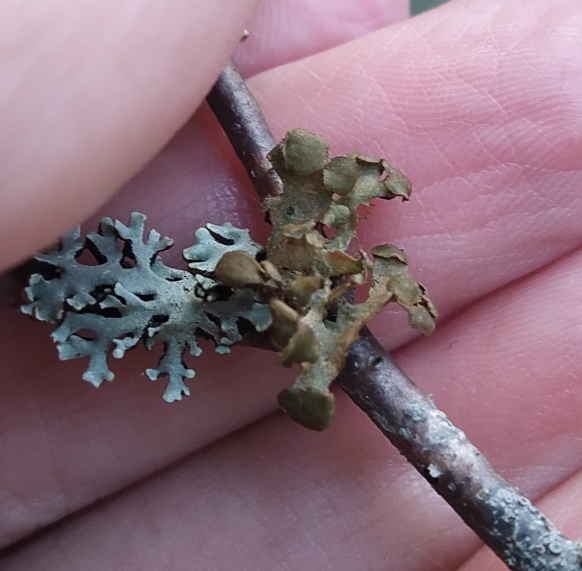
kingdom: Fungi
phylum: Ascomycota
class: Lecanoromycetes
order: Lecanorales
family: Parmeliaceae
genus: Cetraria
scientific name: Cetraria sepincola
